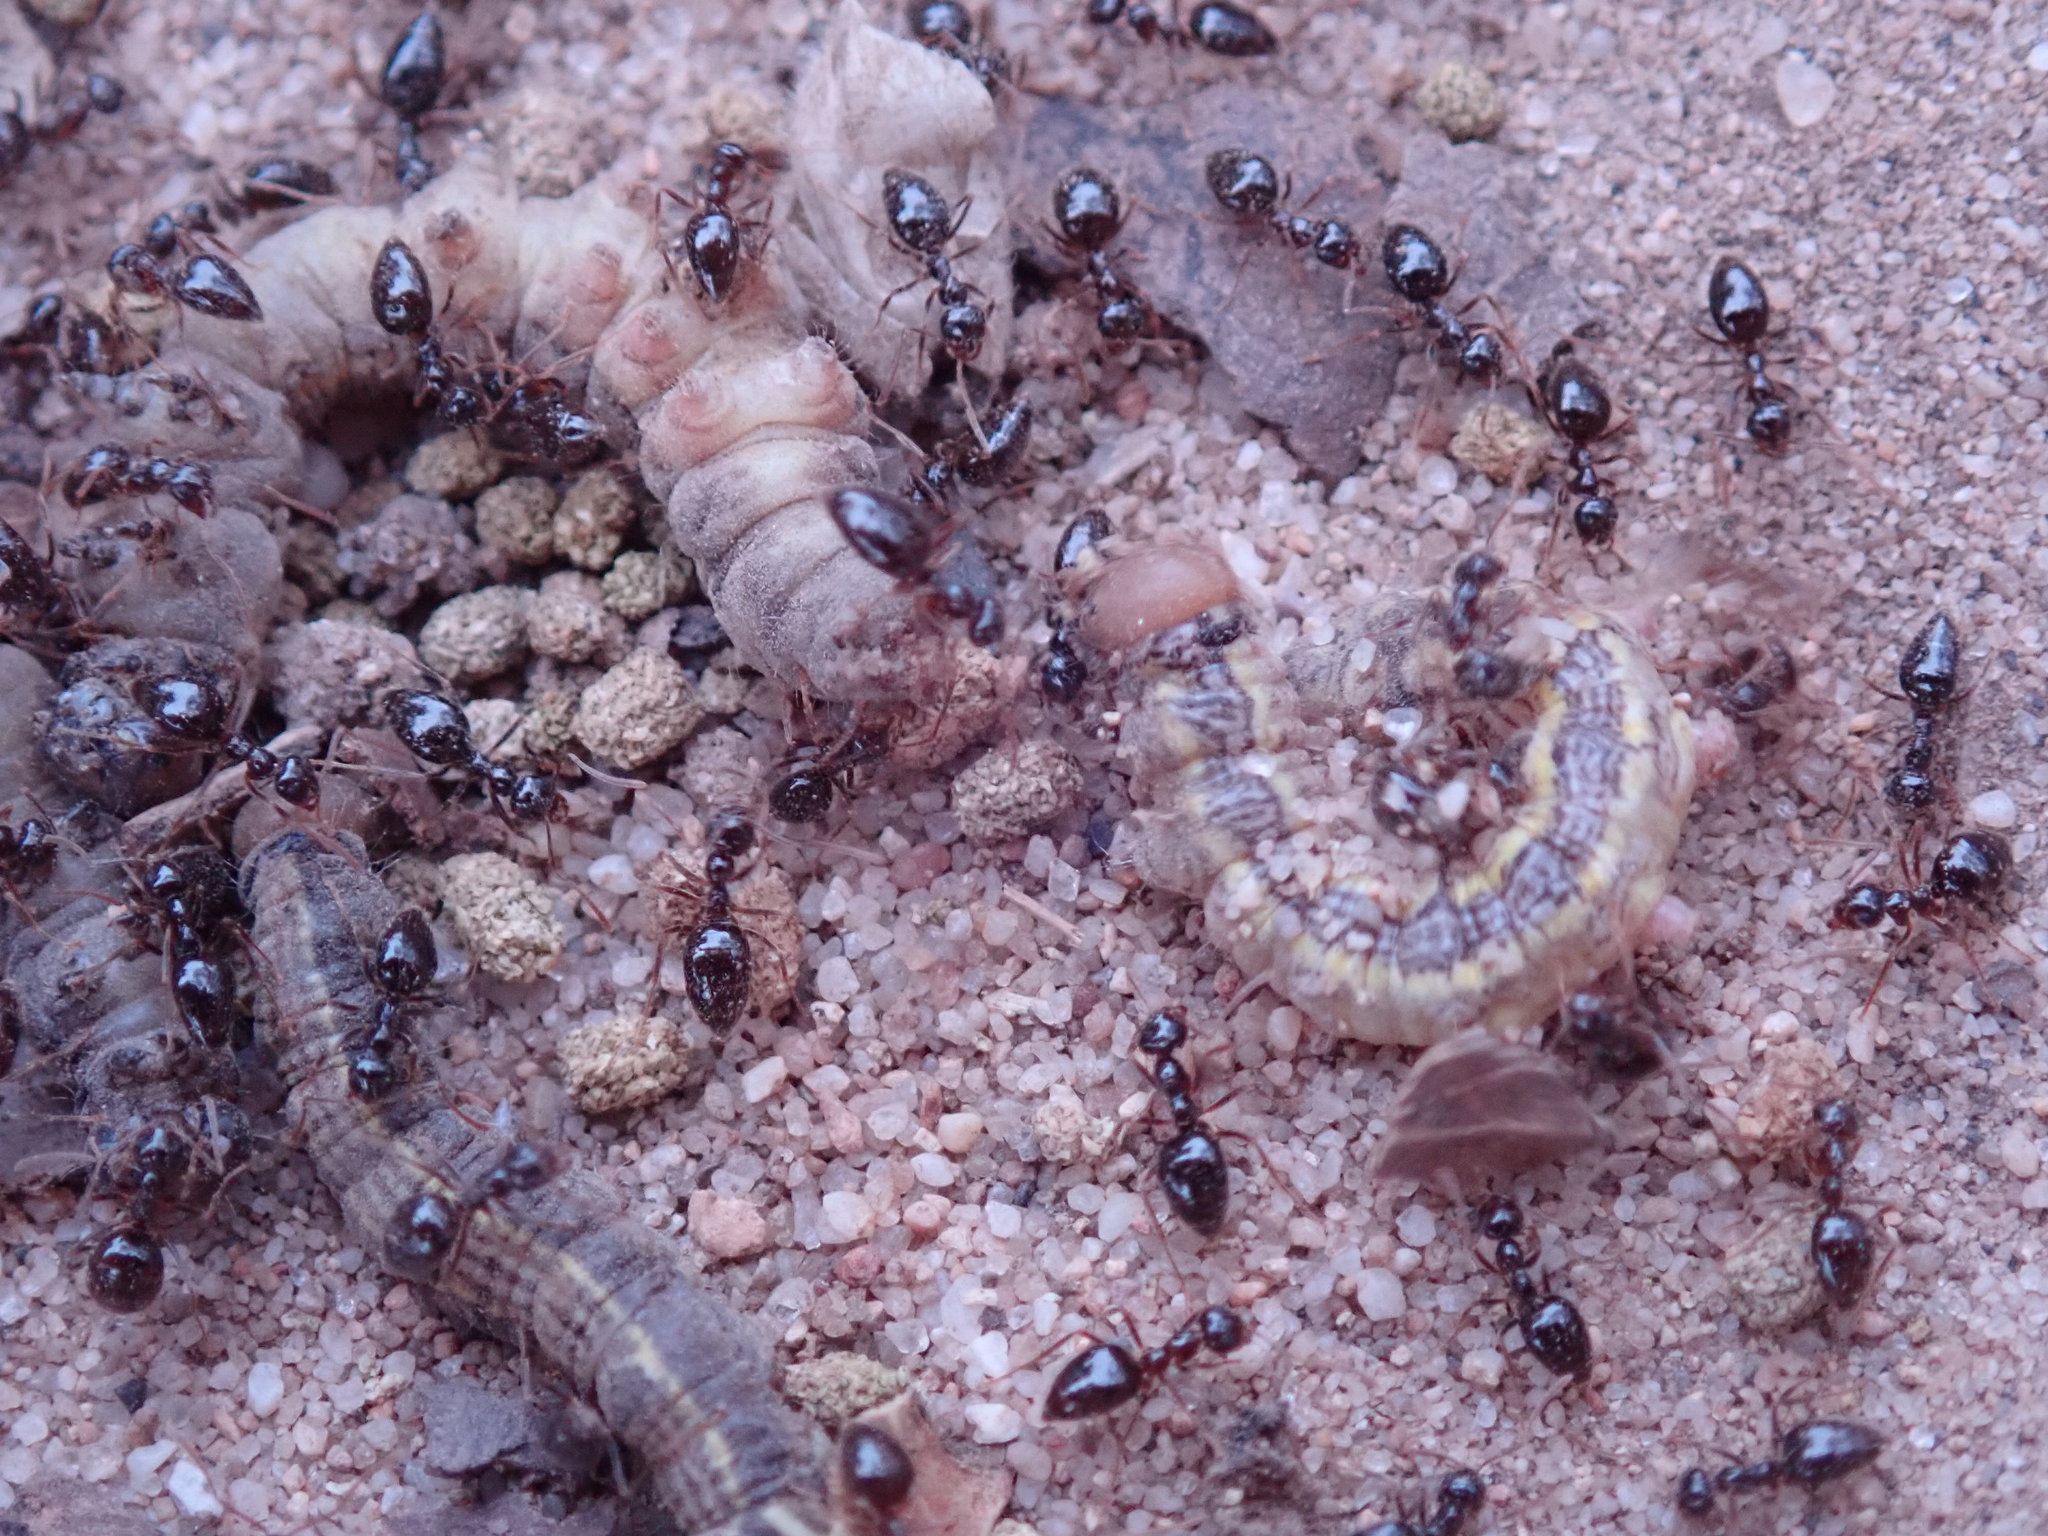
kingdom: Animalia
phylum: Arthropoda
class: Insecta
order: Hymenoptera
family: Formicidae
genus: Prenolepis
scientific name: Prenolepis imparis
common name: Small honey ant
